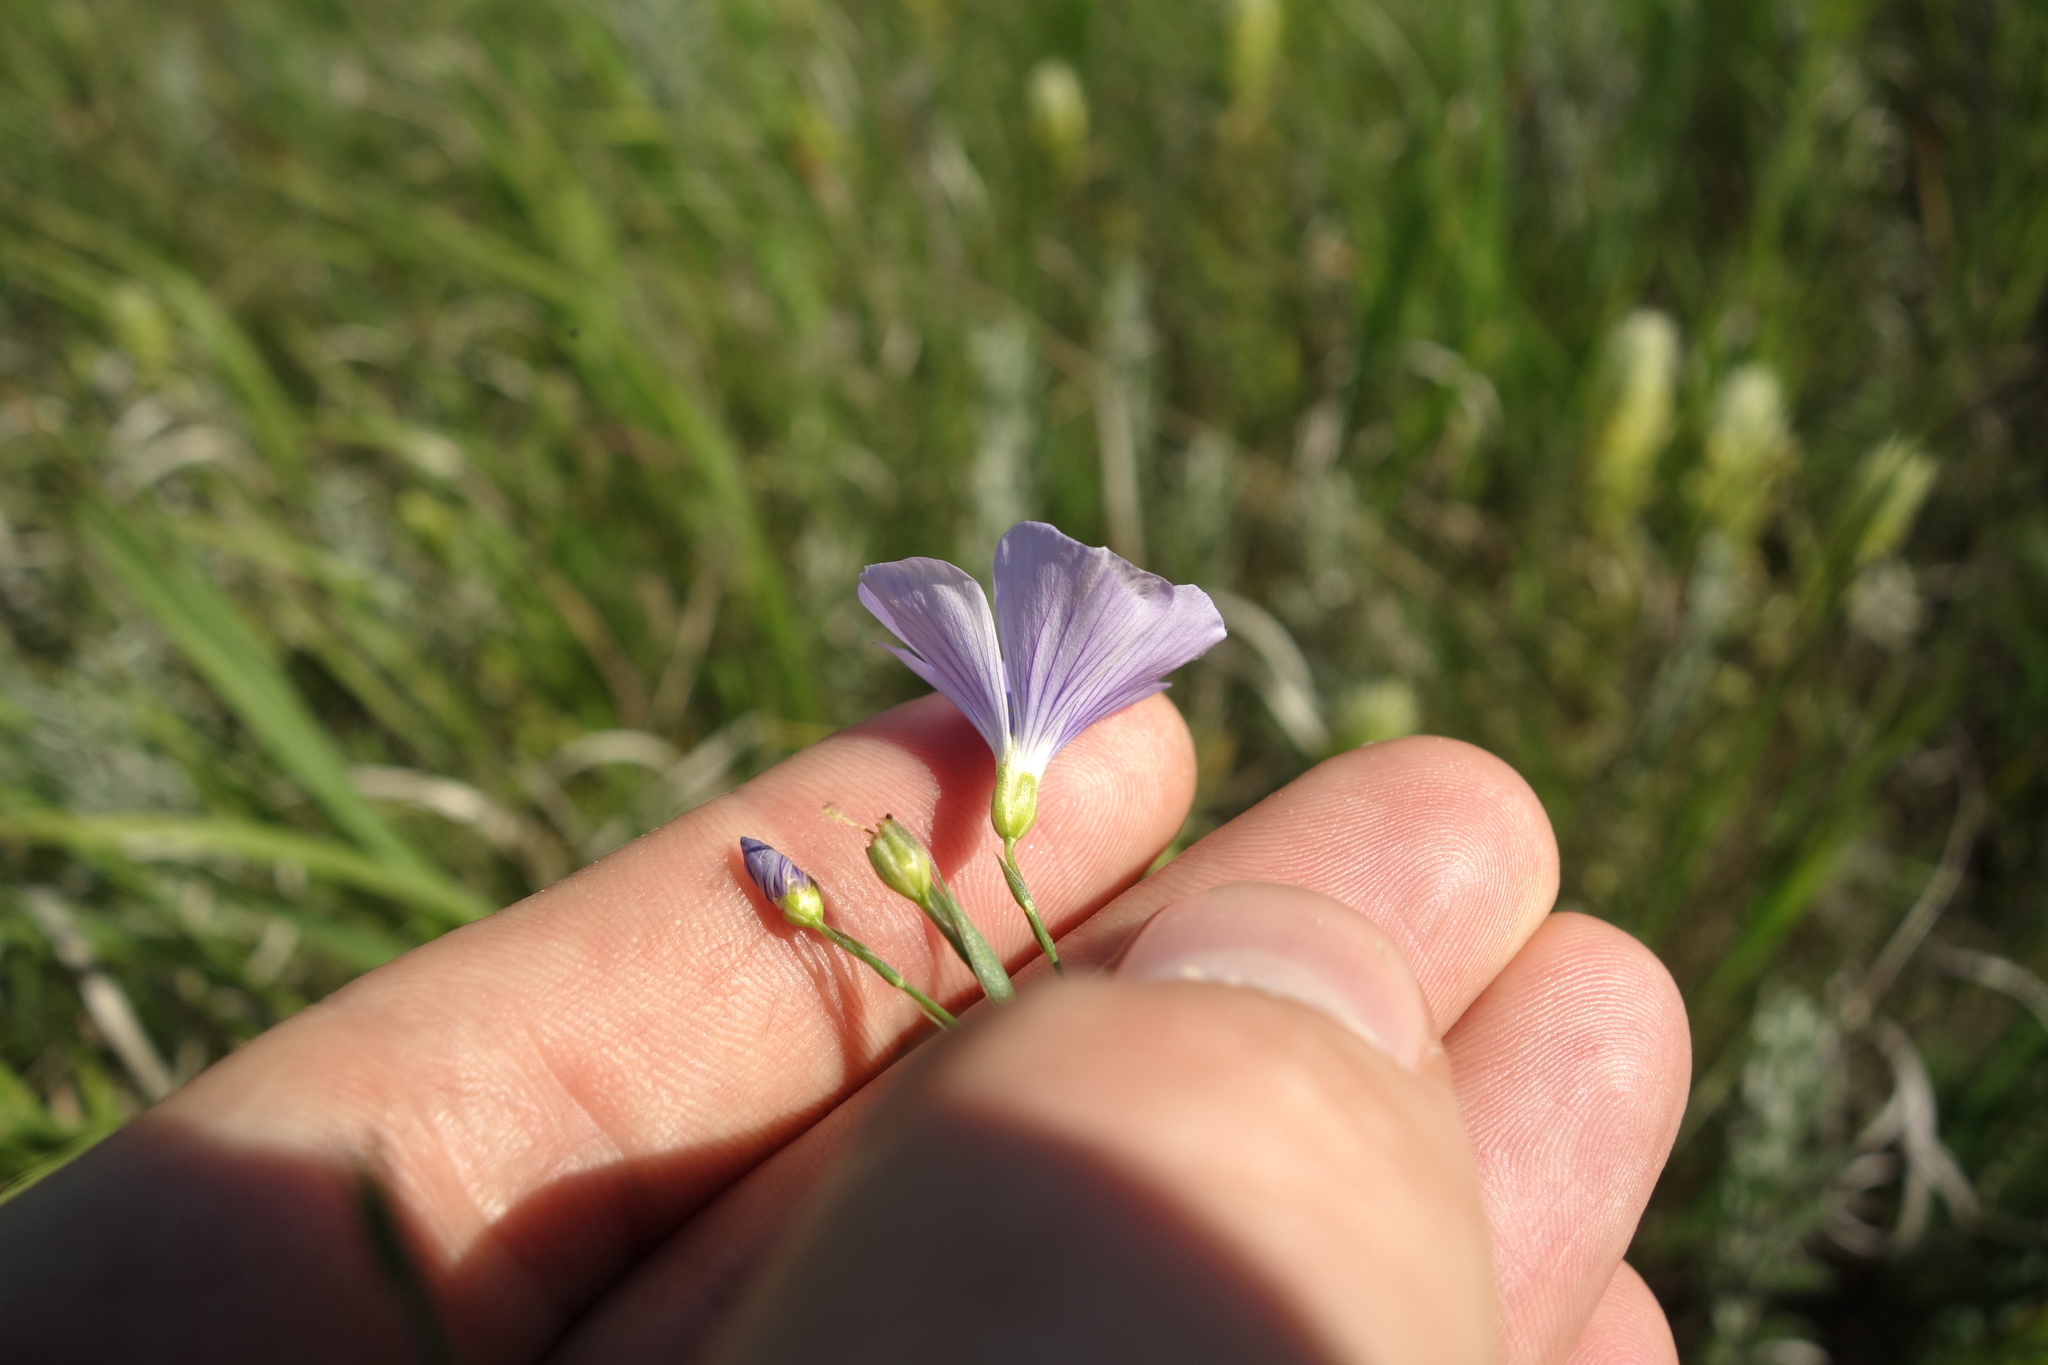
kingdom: Plantae
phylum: Tracheophyta
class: Magnoliopsida
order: Malpighiales
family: Linaceae
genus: Linum
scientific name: Linum nervosum
